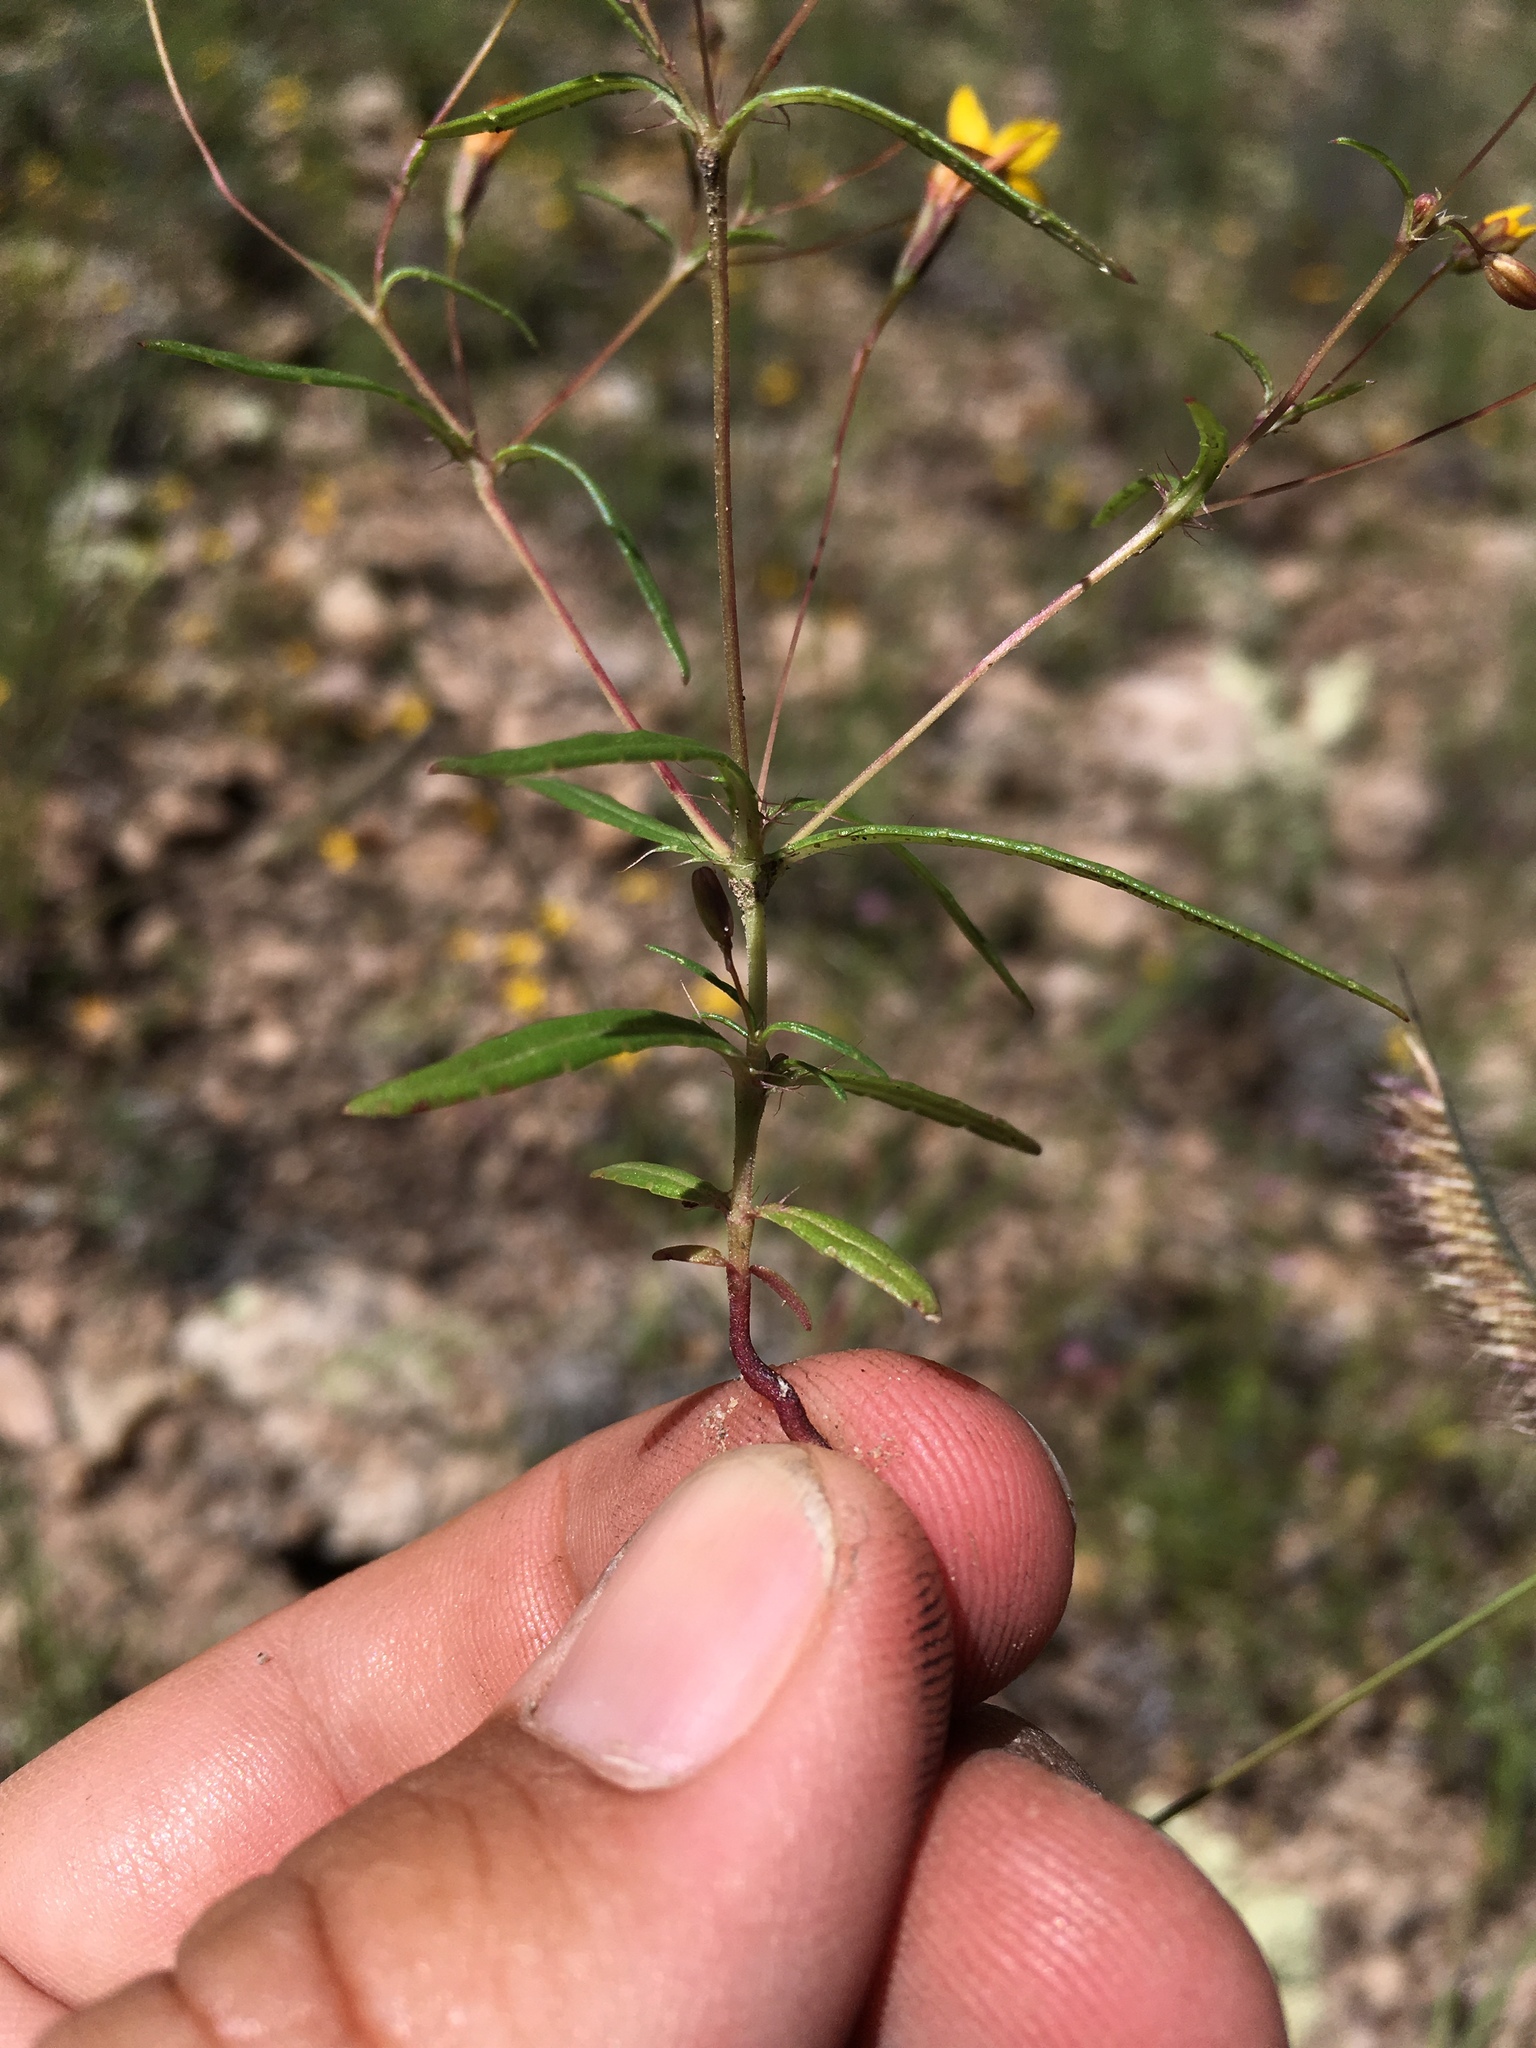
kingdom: Plantae
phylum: Tracheophyta
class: Magnoliopsida
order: Asterales
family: Asteraceae
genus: Pectis
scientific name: Pectis filipes
